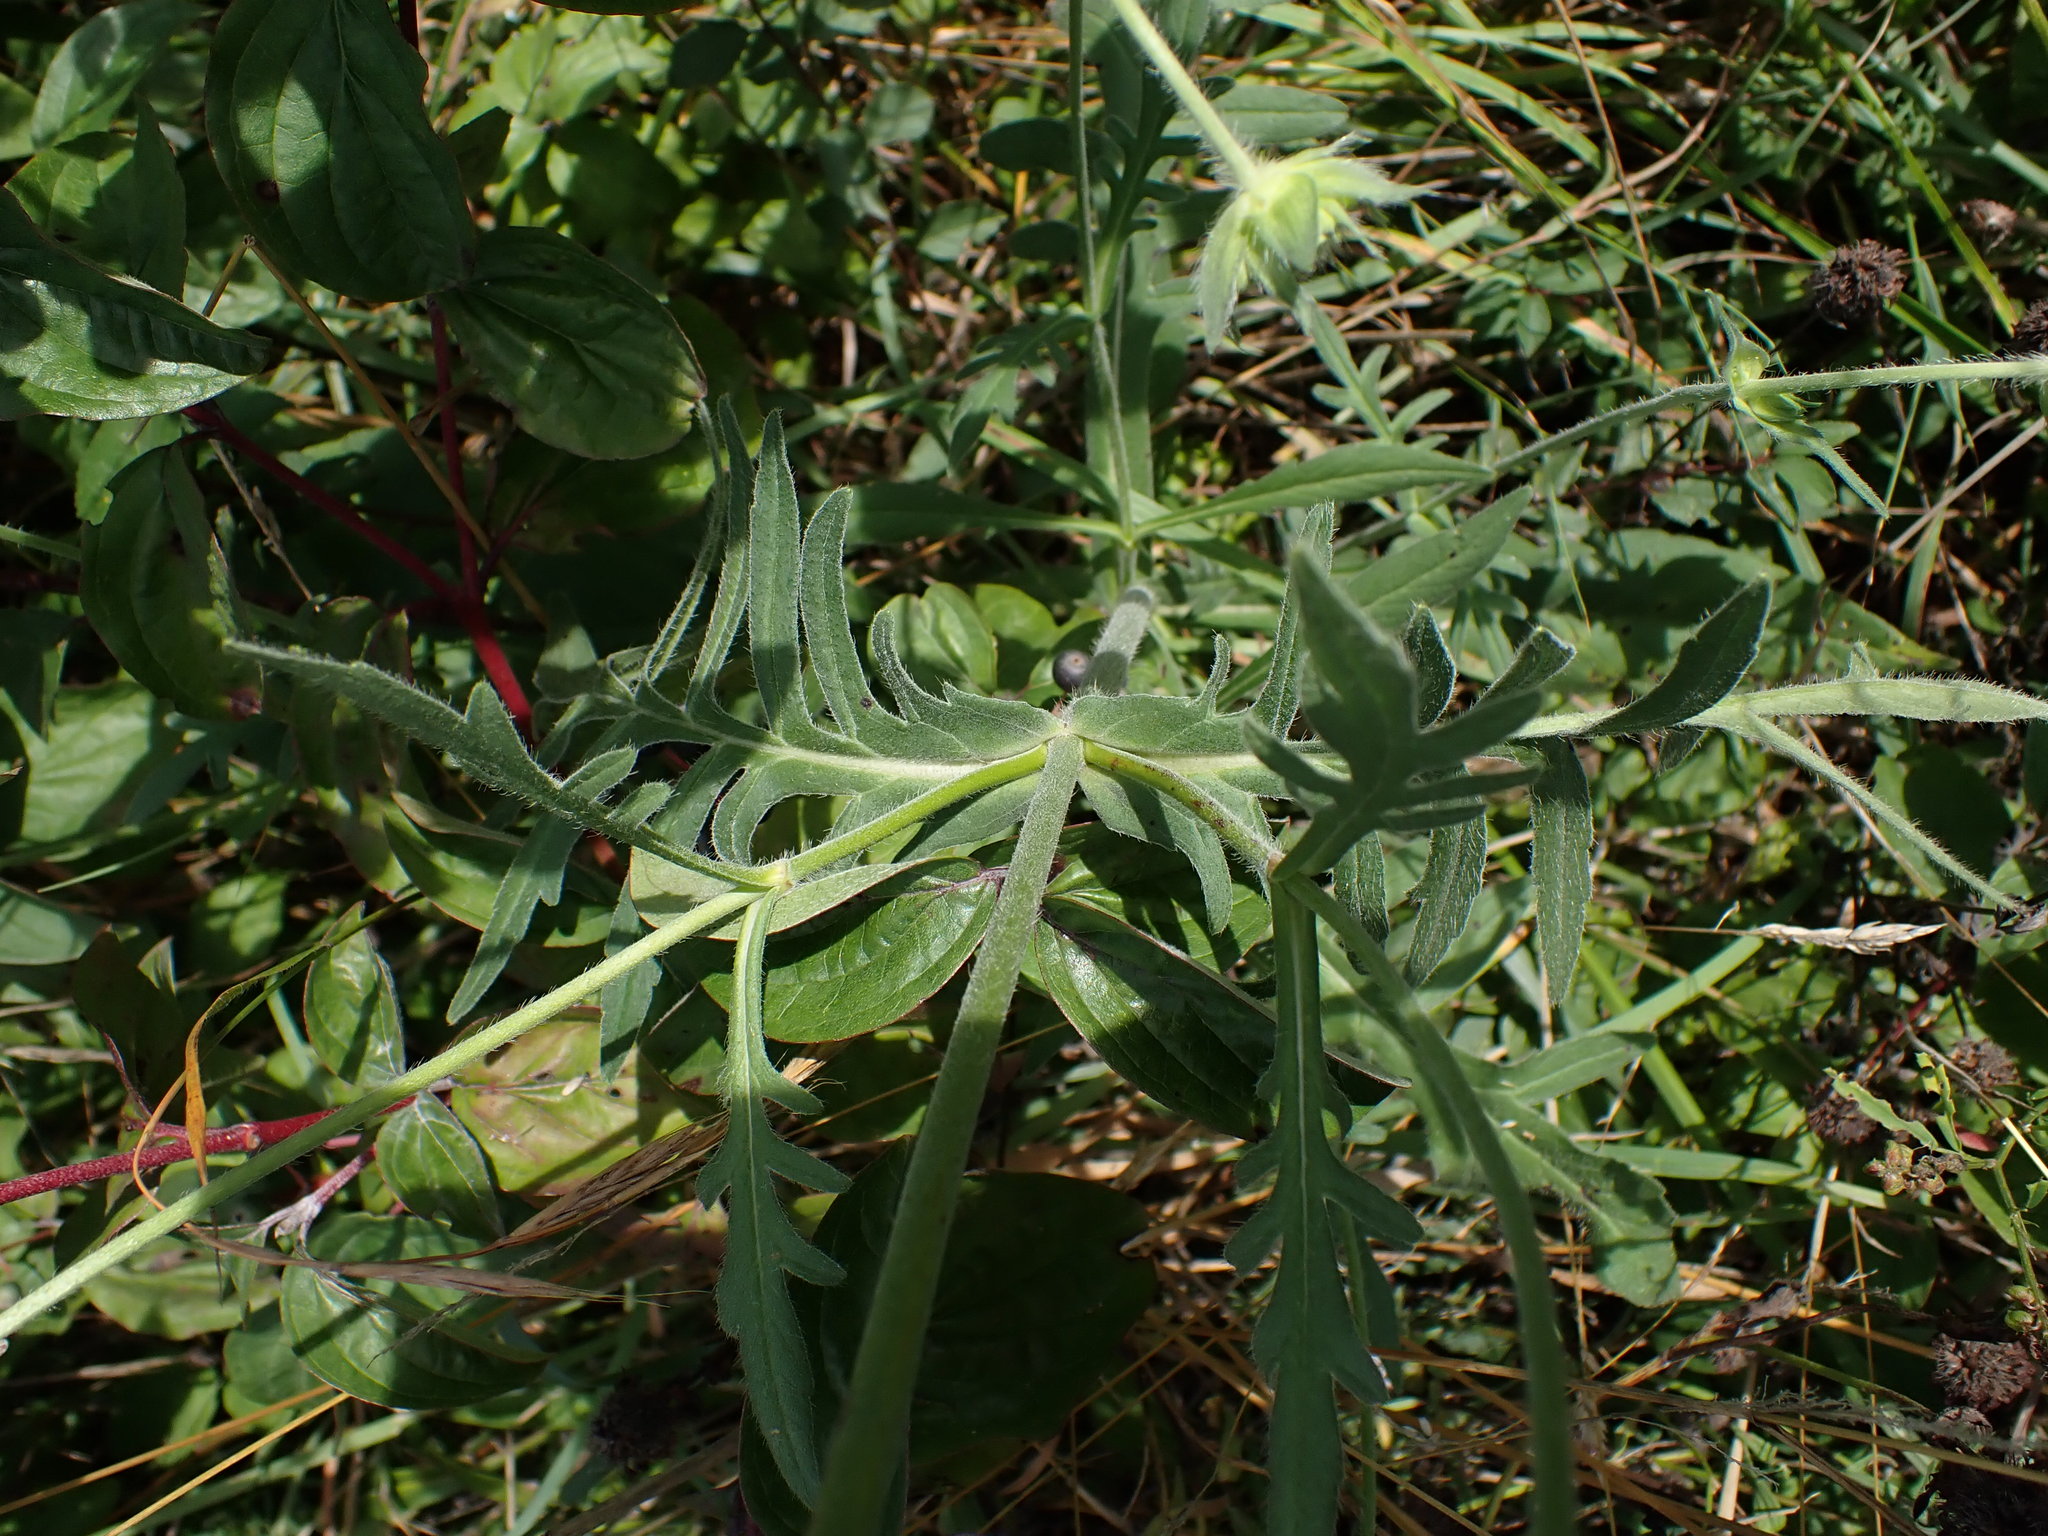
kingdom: Plantae
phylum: Tracheophyta
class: Magnoliopsida
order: Dipsacales
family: Caprifoliaceae
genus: Knautia
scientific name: Knautia arvensis
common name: Field scabiosa
